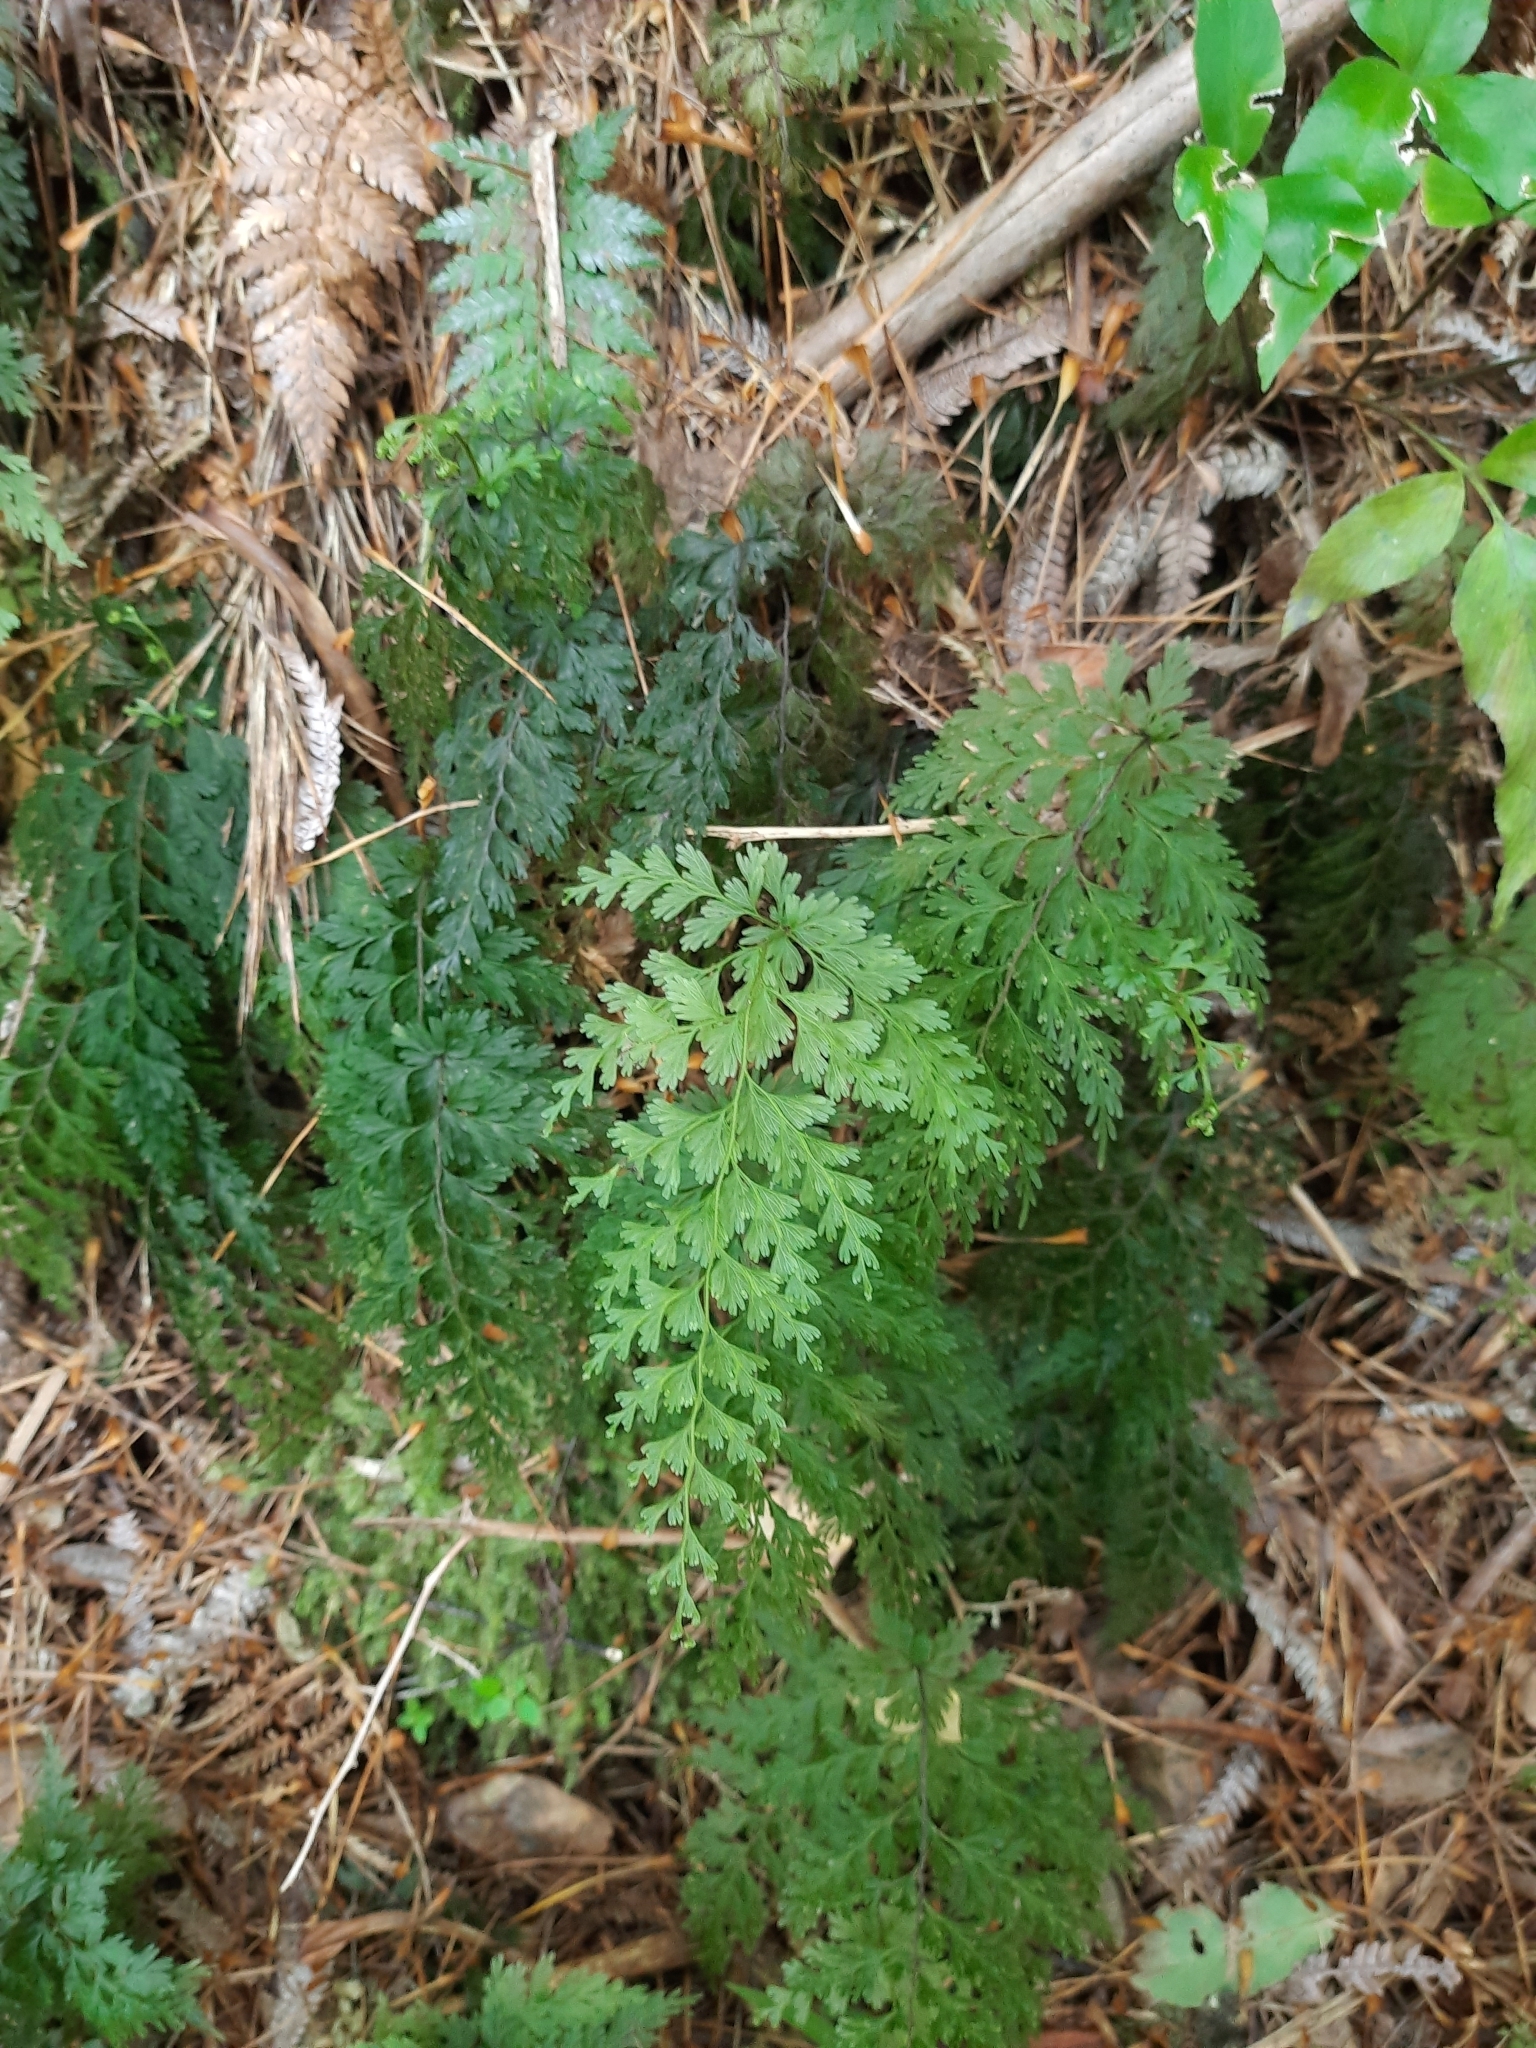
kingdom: Plantae
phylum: Tracheophyta
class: Polypodiopsida
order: Hymenophyllales
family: Hymenophyllaceae
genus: Hymenophyllum
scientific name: Hymenophyllum demissum
